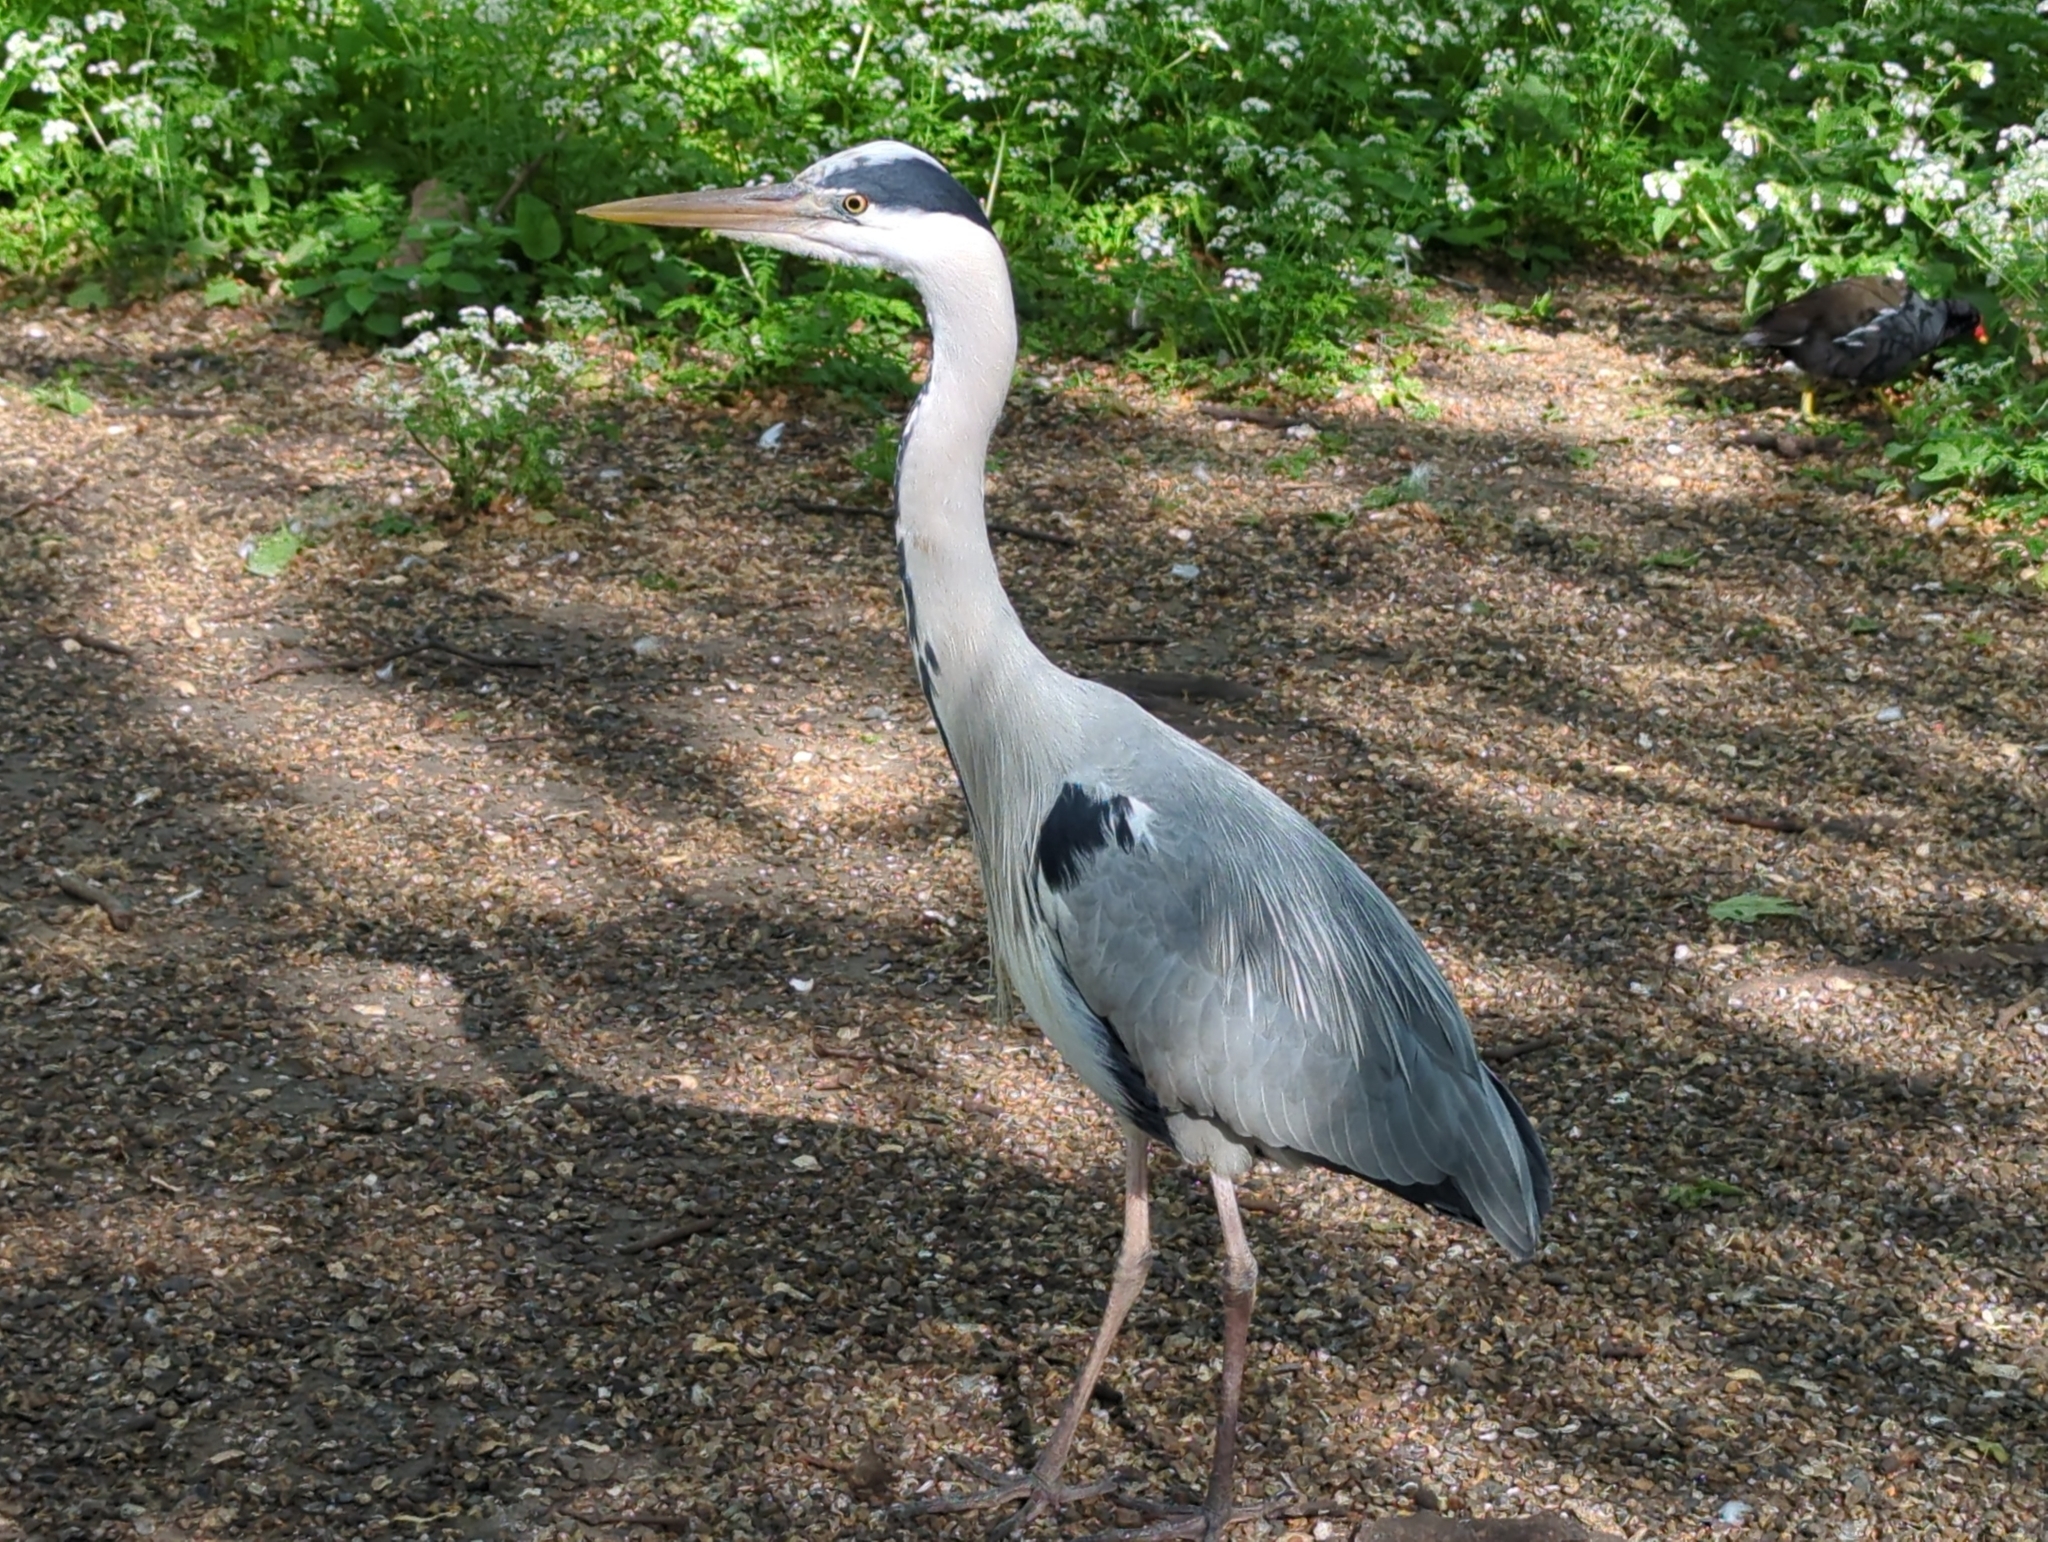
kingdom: Animalia
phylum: Chordata
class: Aves
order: Pelecaniformes
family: Ardeidae
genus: Ardea
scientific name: Ardea cinerea
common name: Grey heron
